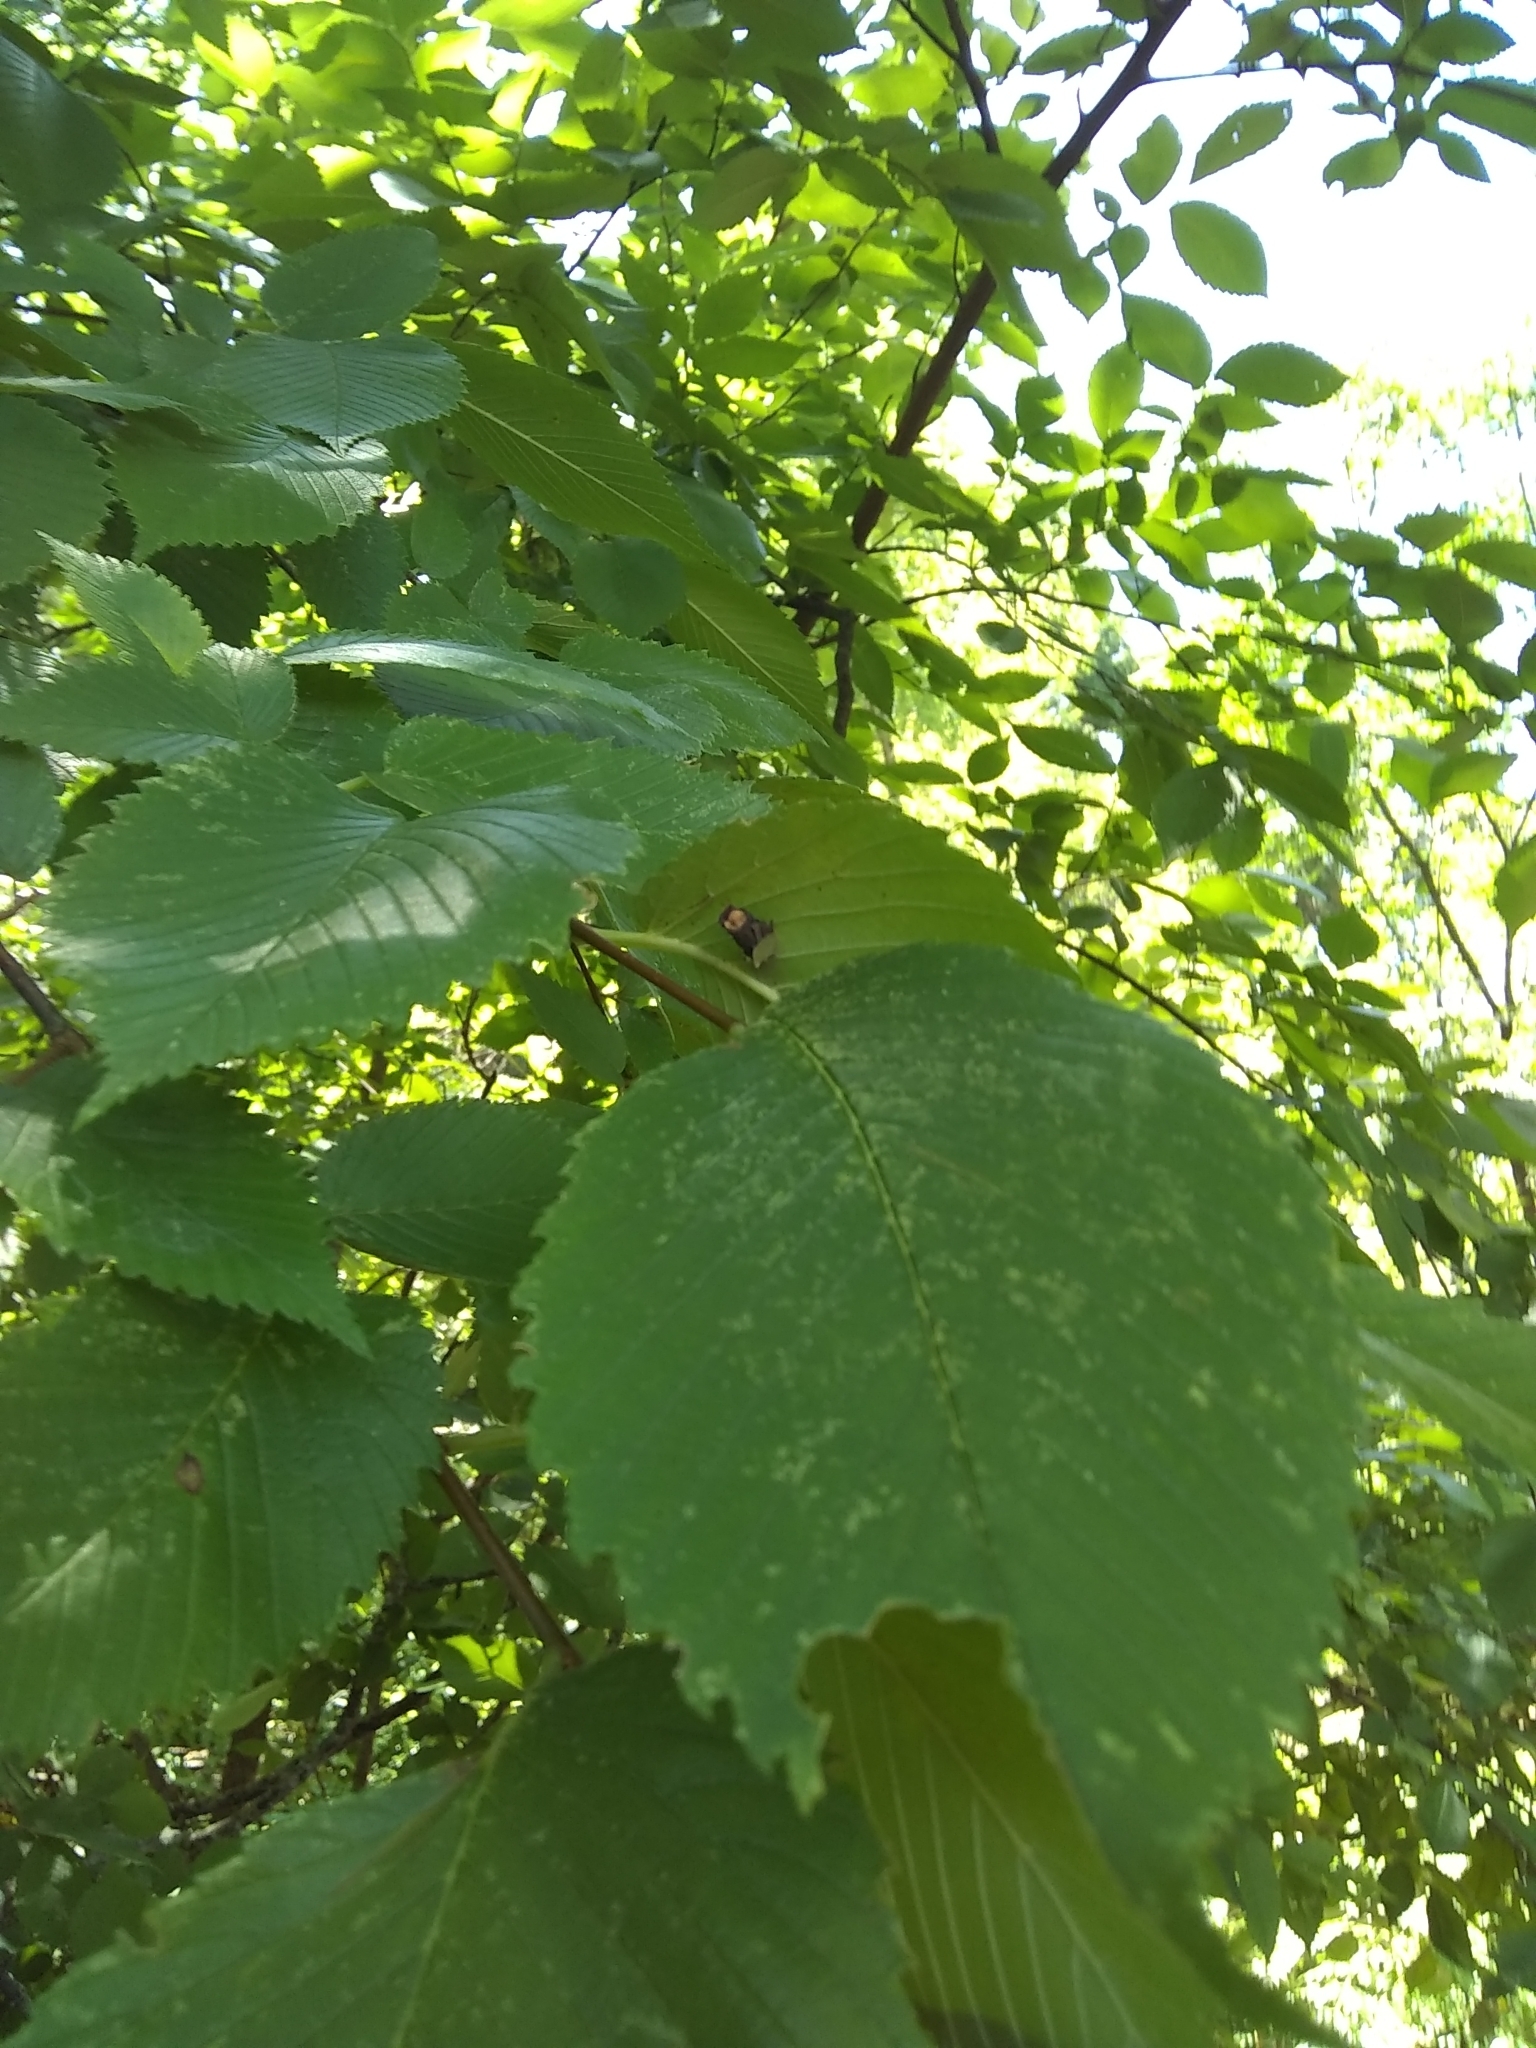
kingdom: Plantae
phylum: Tracheophyta
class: Magnoliopsida
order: Rosales
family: Ulmaceae
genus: Ulmus
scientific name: Ulmus rubra
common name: Slippery elm
